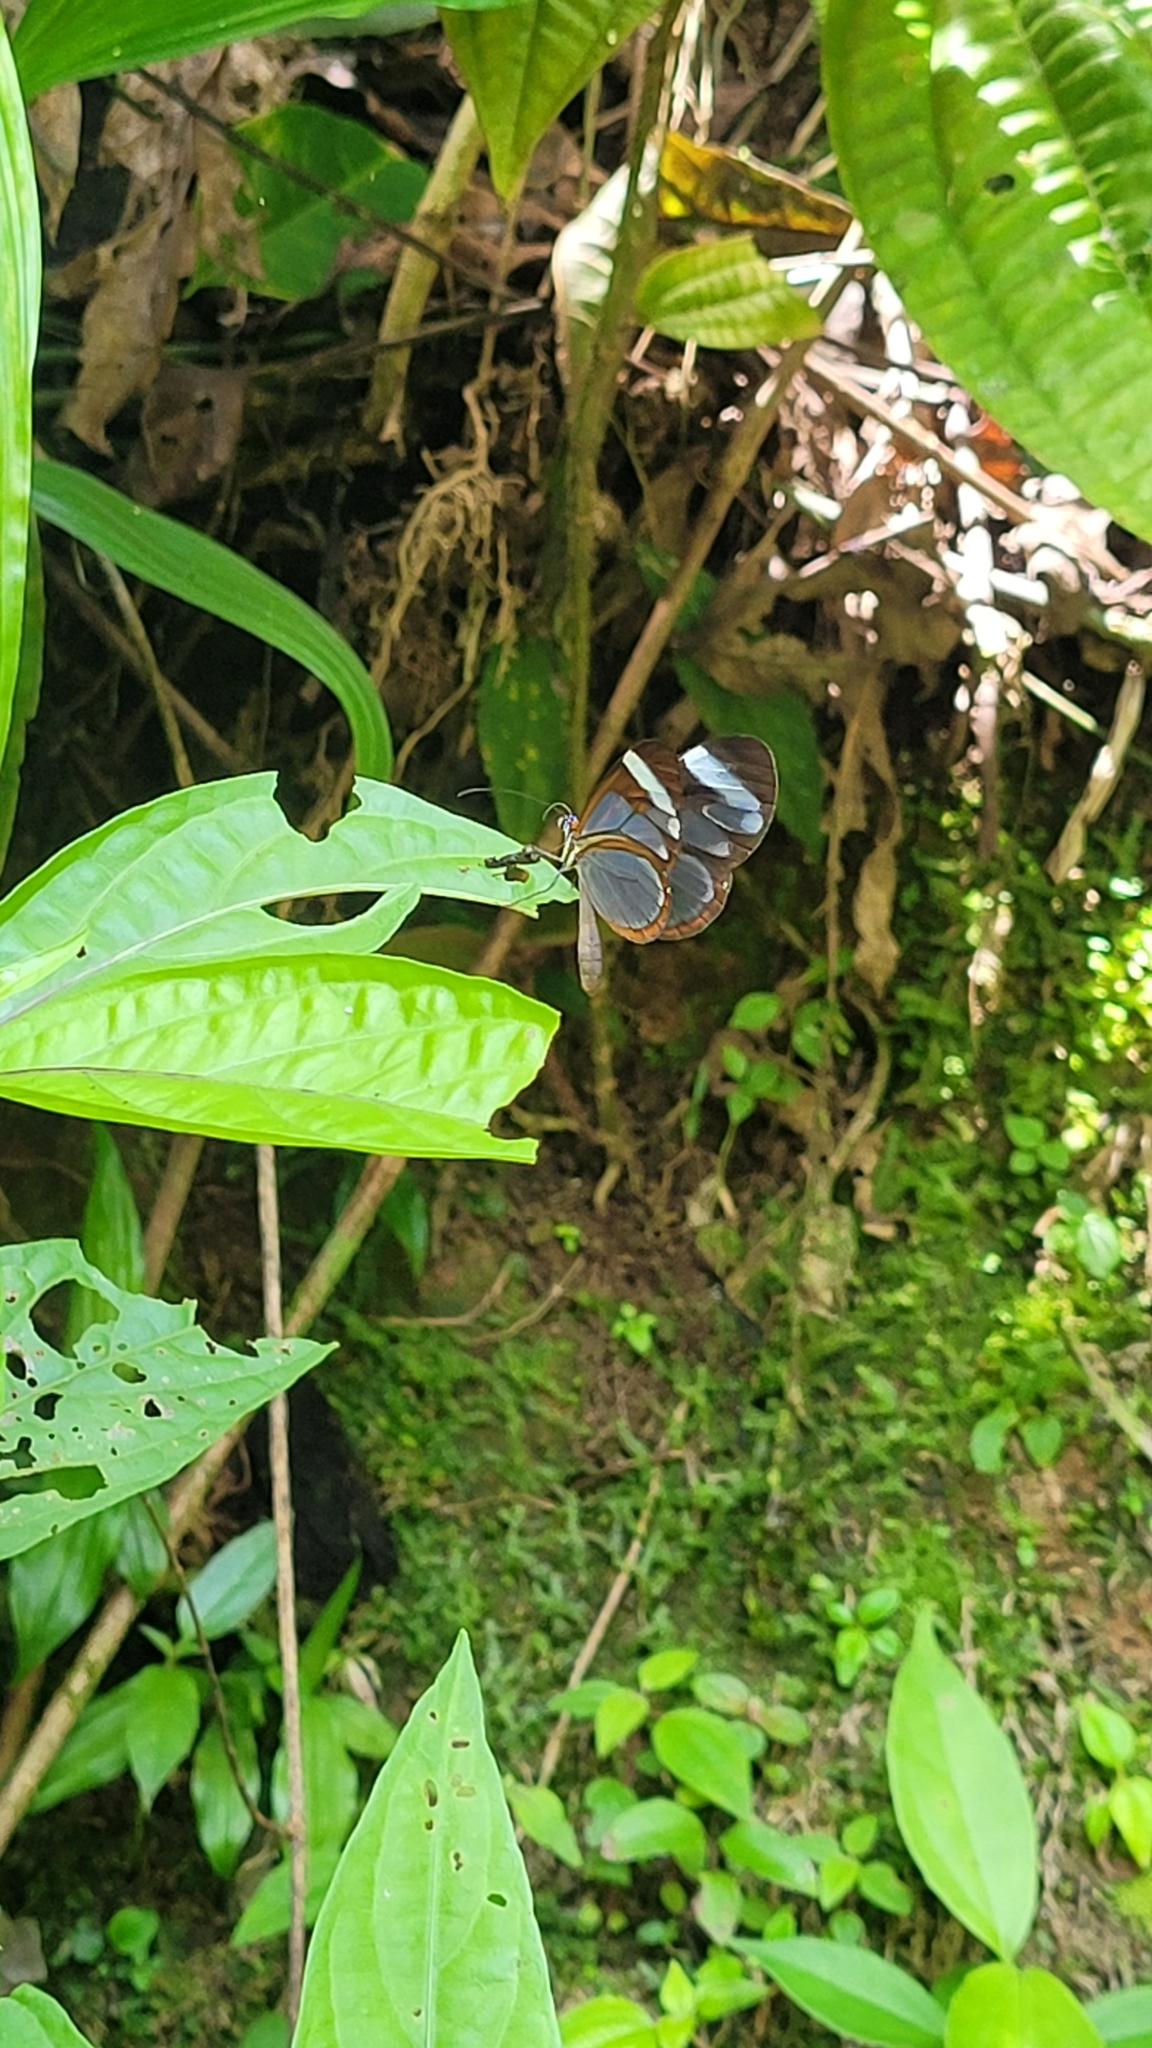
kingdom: Animalia
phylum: Arthropoda
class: Insecta
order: Lepidoptera
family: Nymphalidae
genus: Ithomia
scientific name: Ithomia patilla
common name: Patilla clearwing
